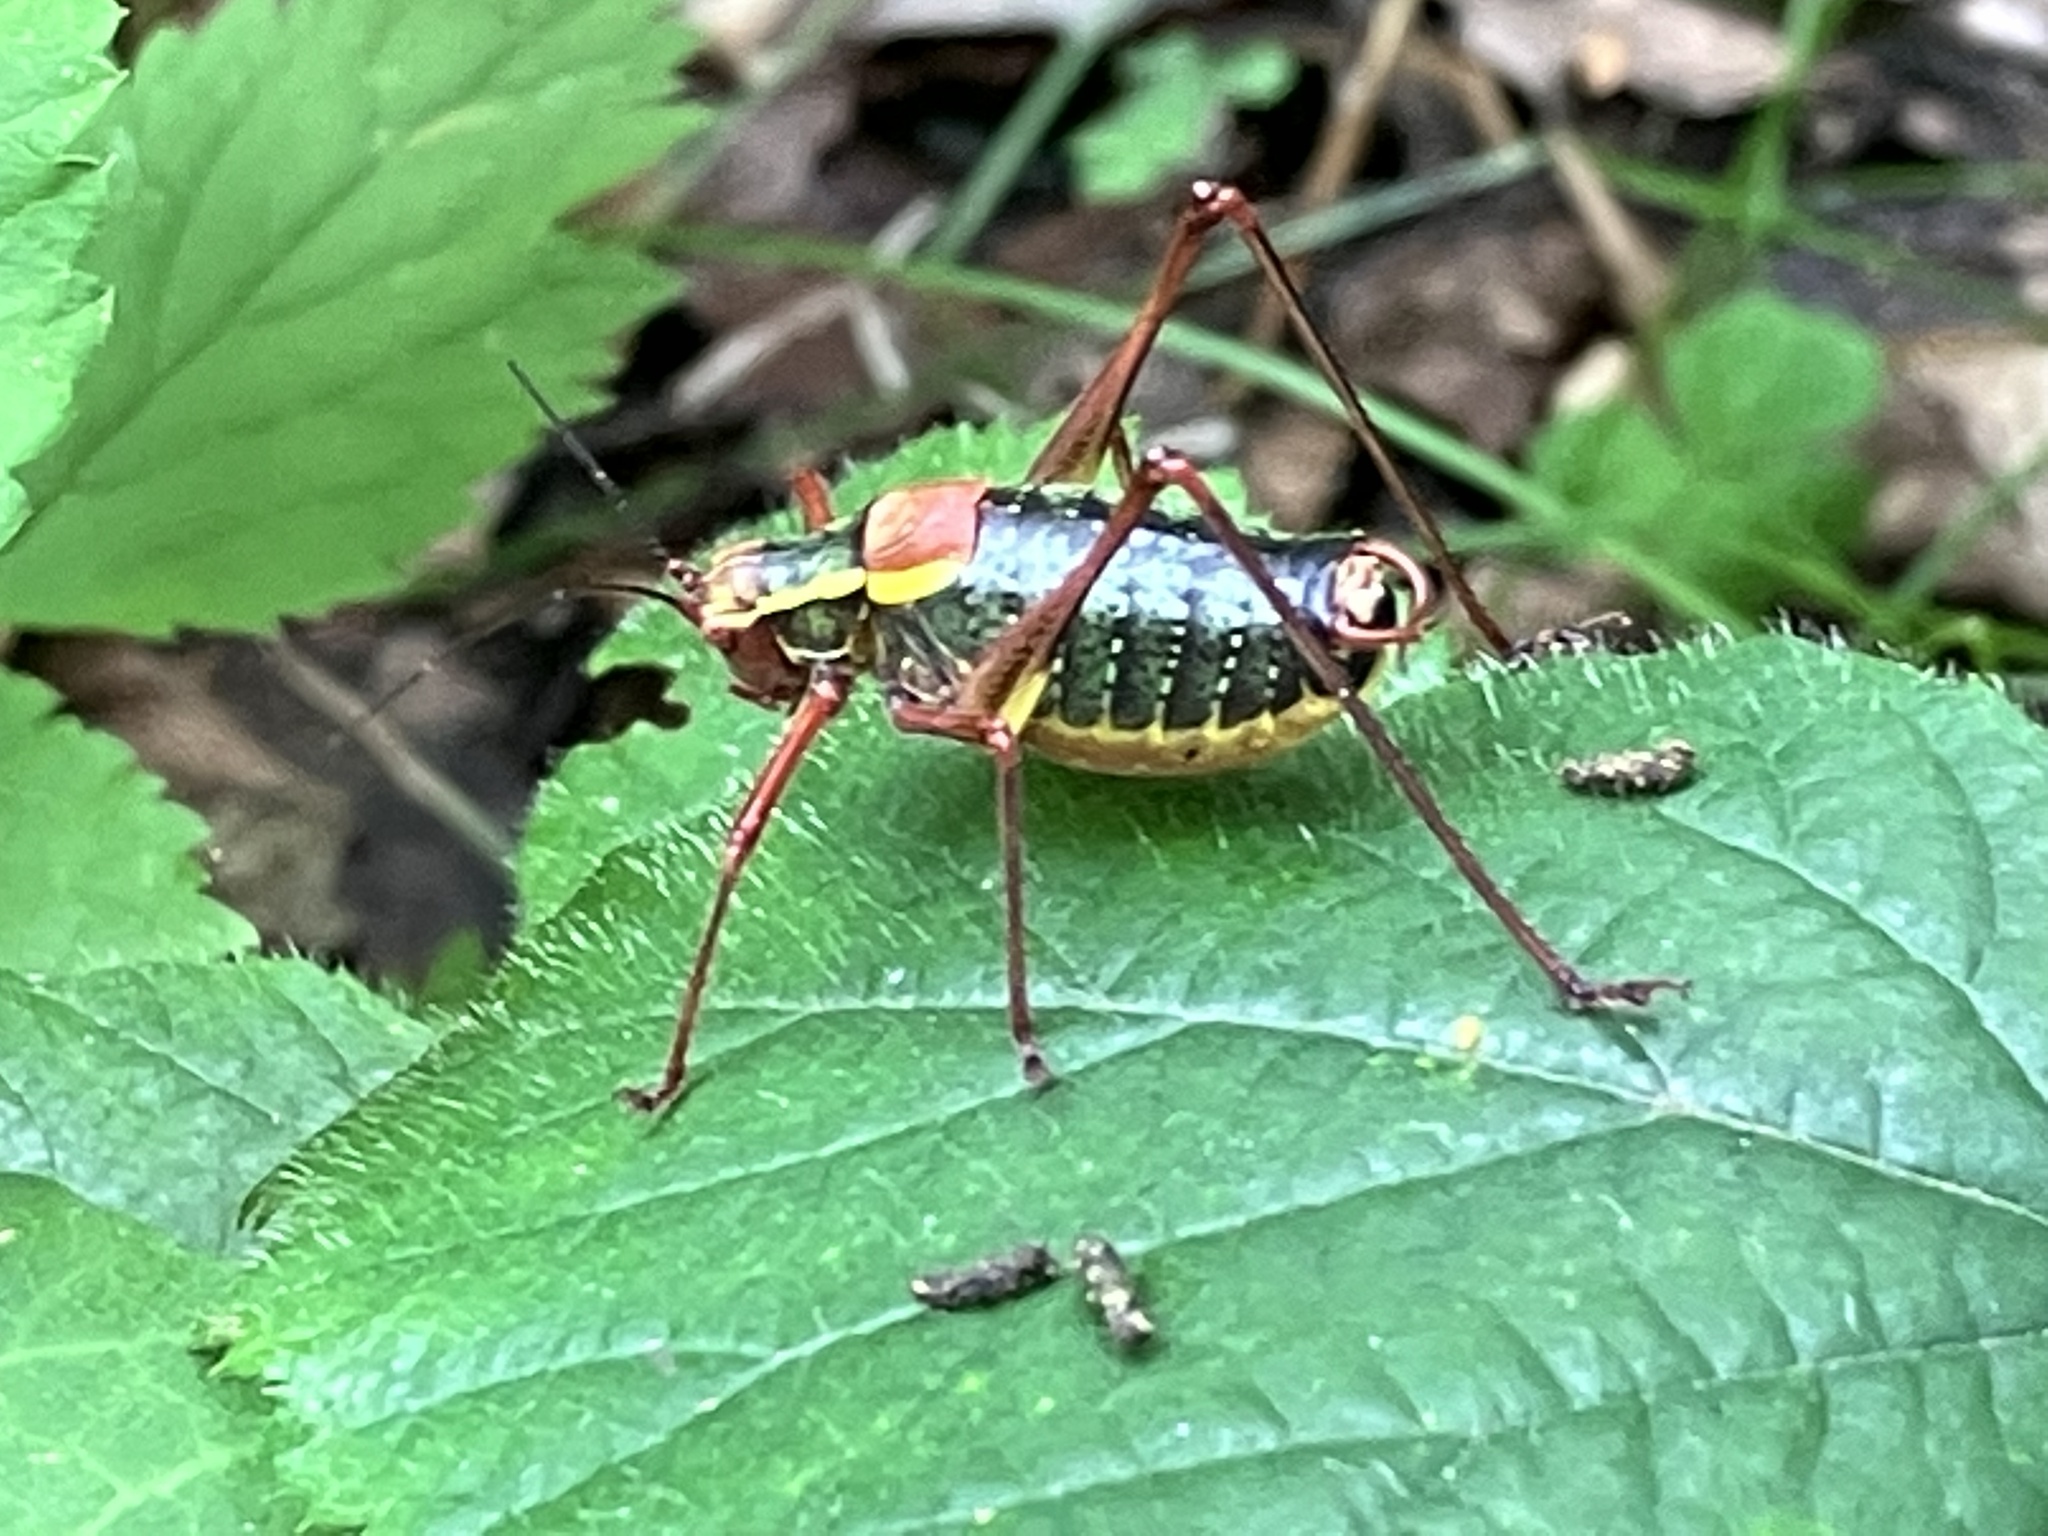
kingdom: Animalia
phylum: Arthropoda
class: Insecta
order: Orthoptera
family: Tettigoniidae
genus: Barbitistes
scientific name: Barbitistes serricauda
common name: Saw-tailed bush-cricket
